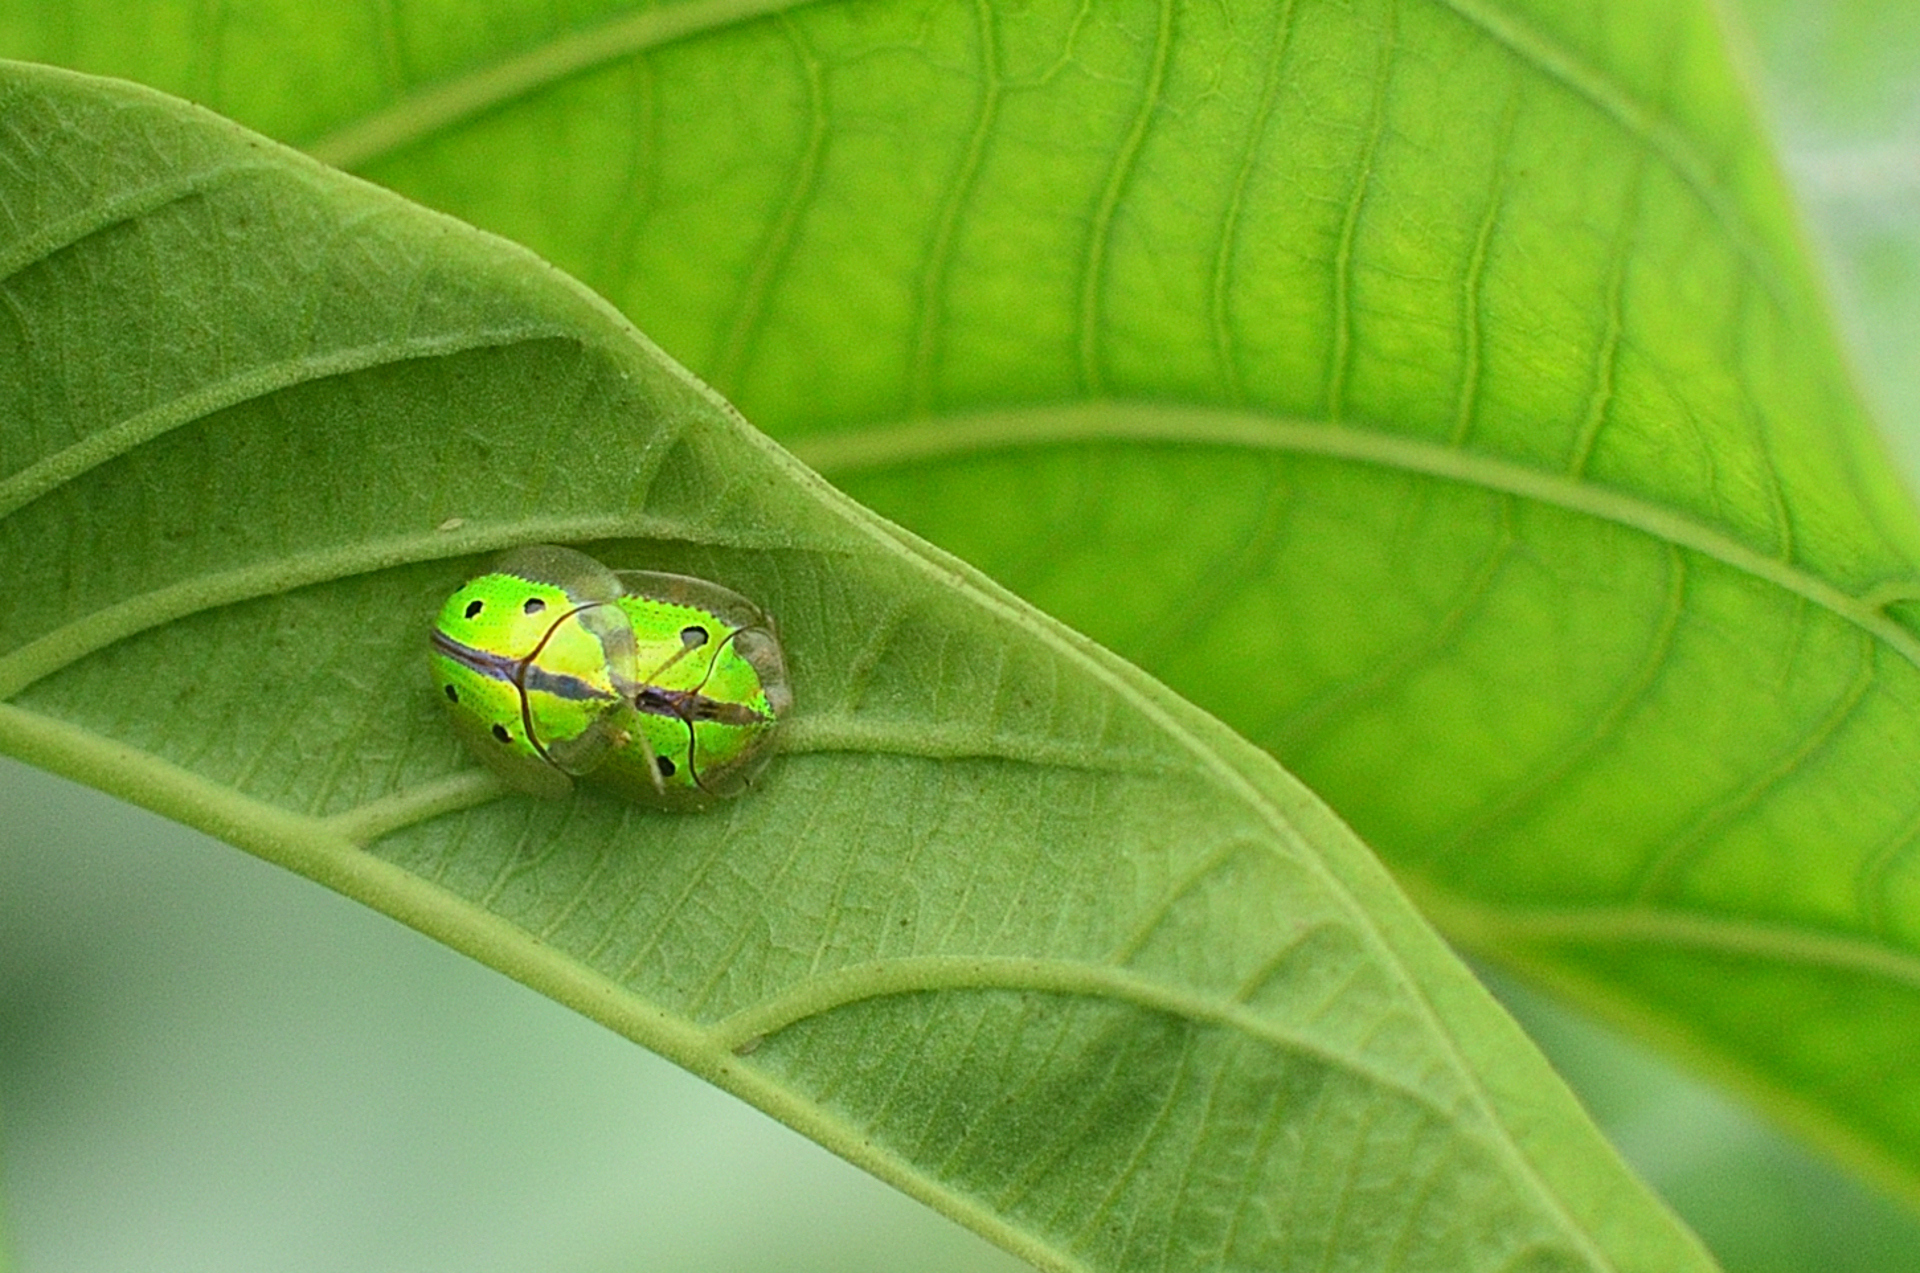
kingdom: Animalia
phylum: Arthropoda
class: Insecta
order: Coleoptera
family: Chrysomelidae
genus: Chiridopsis
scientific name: Chiridopsis bipunctata
